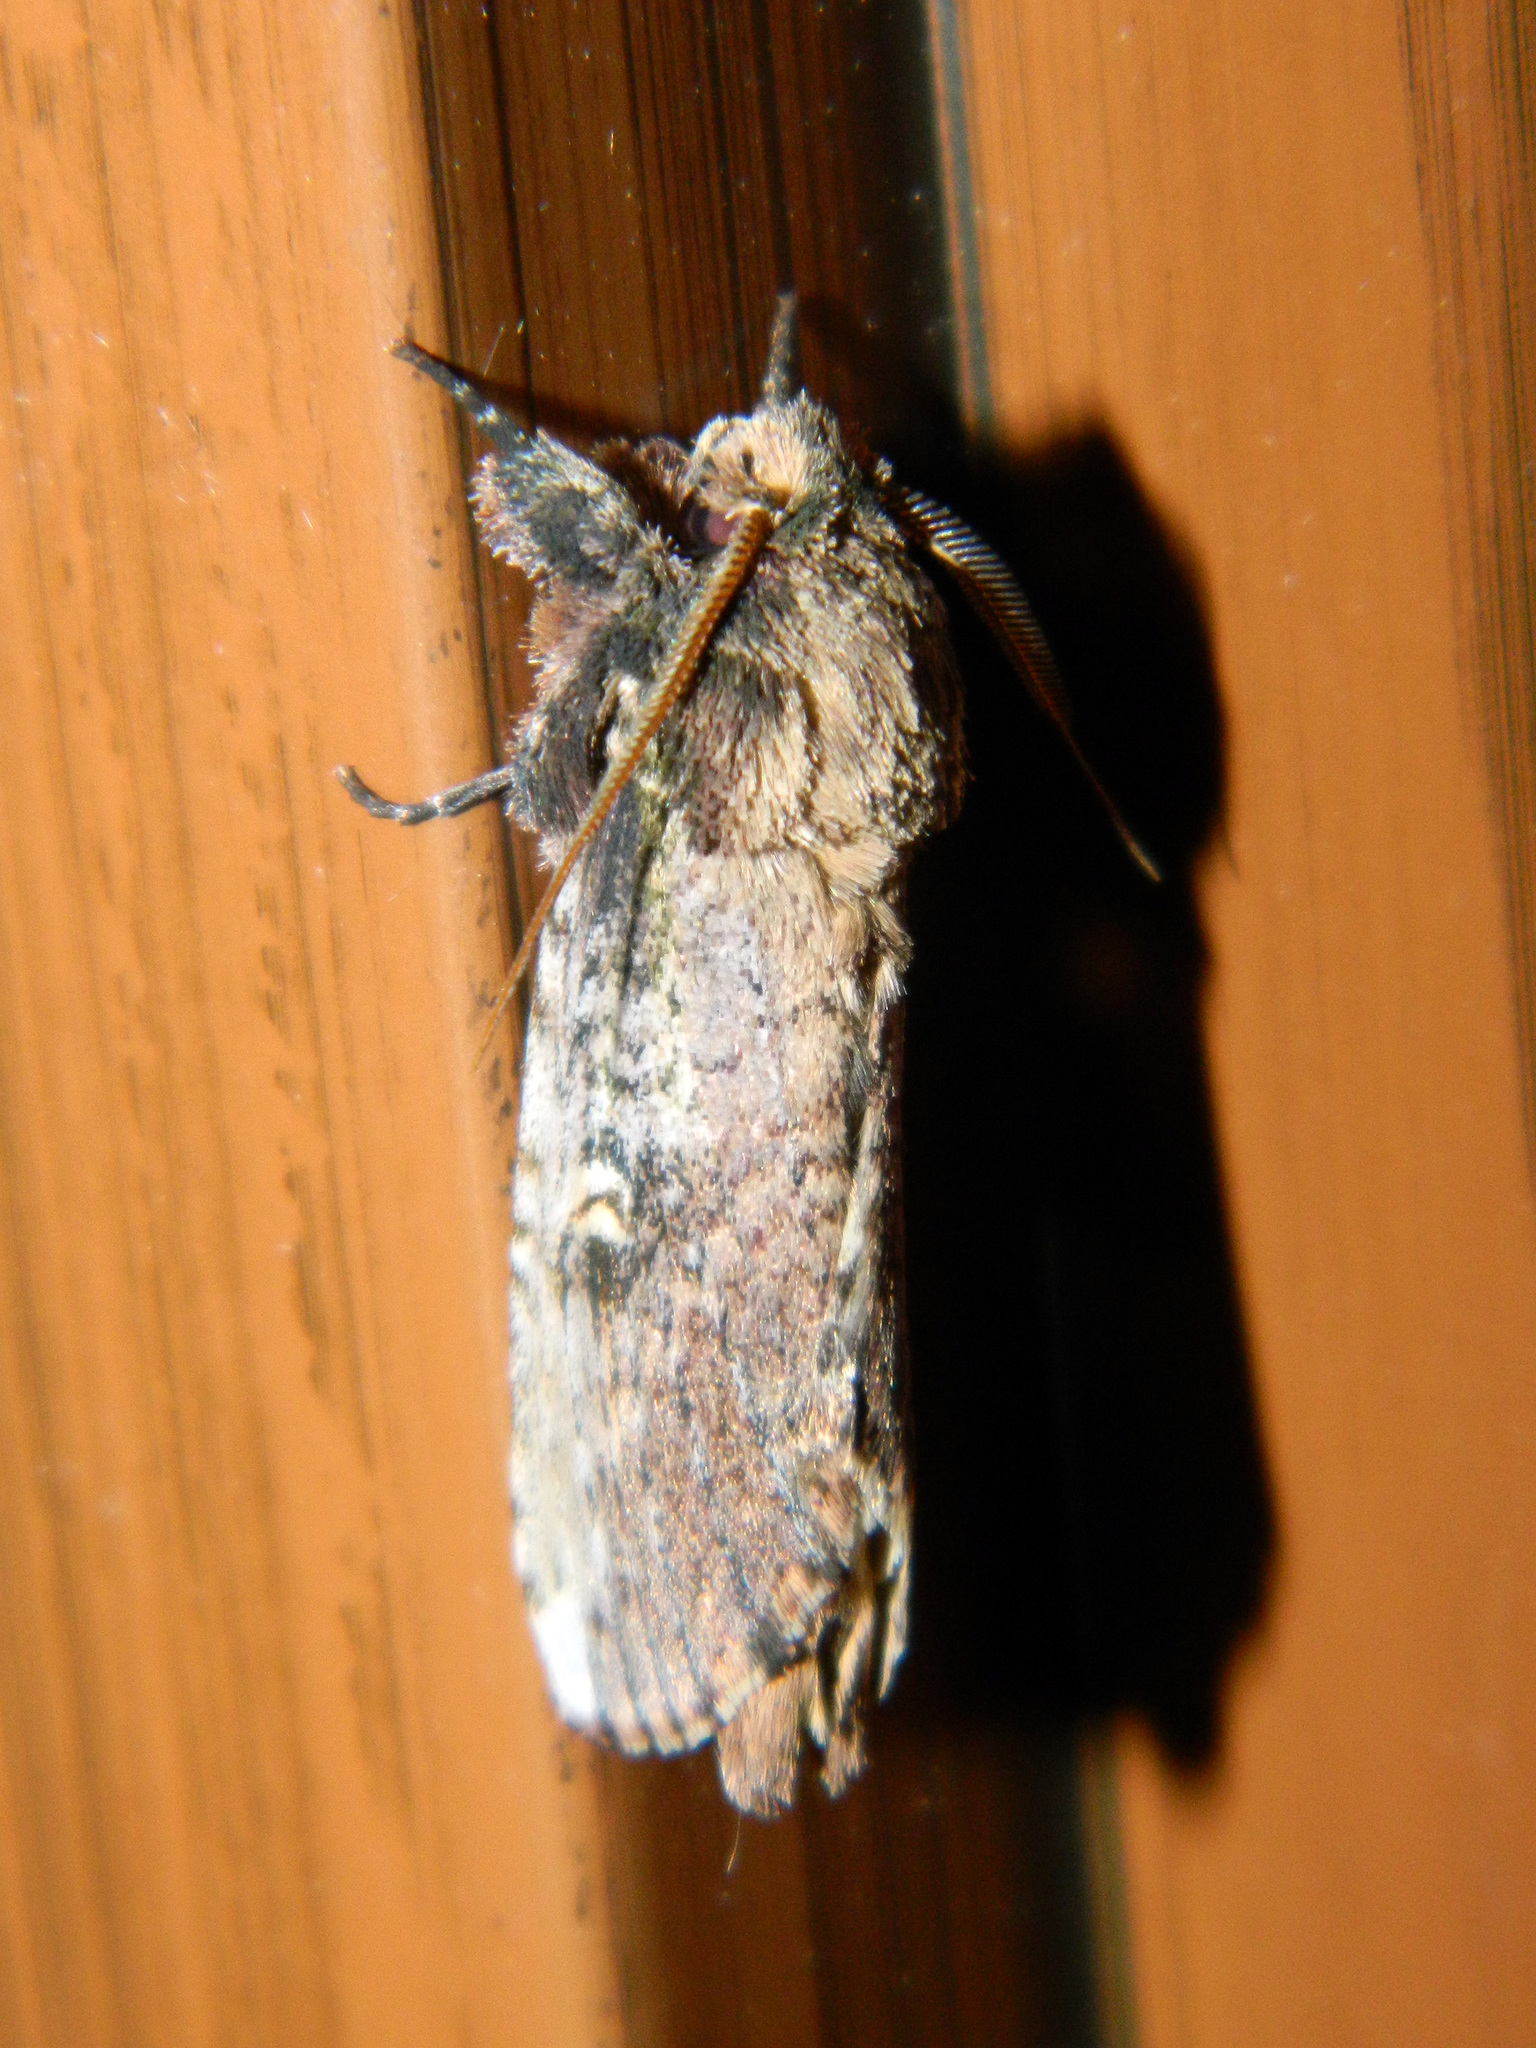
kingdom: Animalia
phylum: Arthropoda
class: Insecta
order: Lepidoptera
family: Notodontidae
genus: Schizura
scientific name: Schizura ipomaeae
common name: Morning-glory prominent
